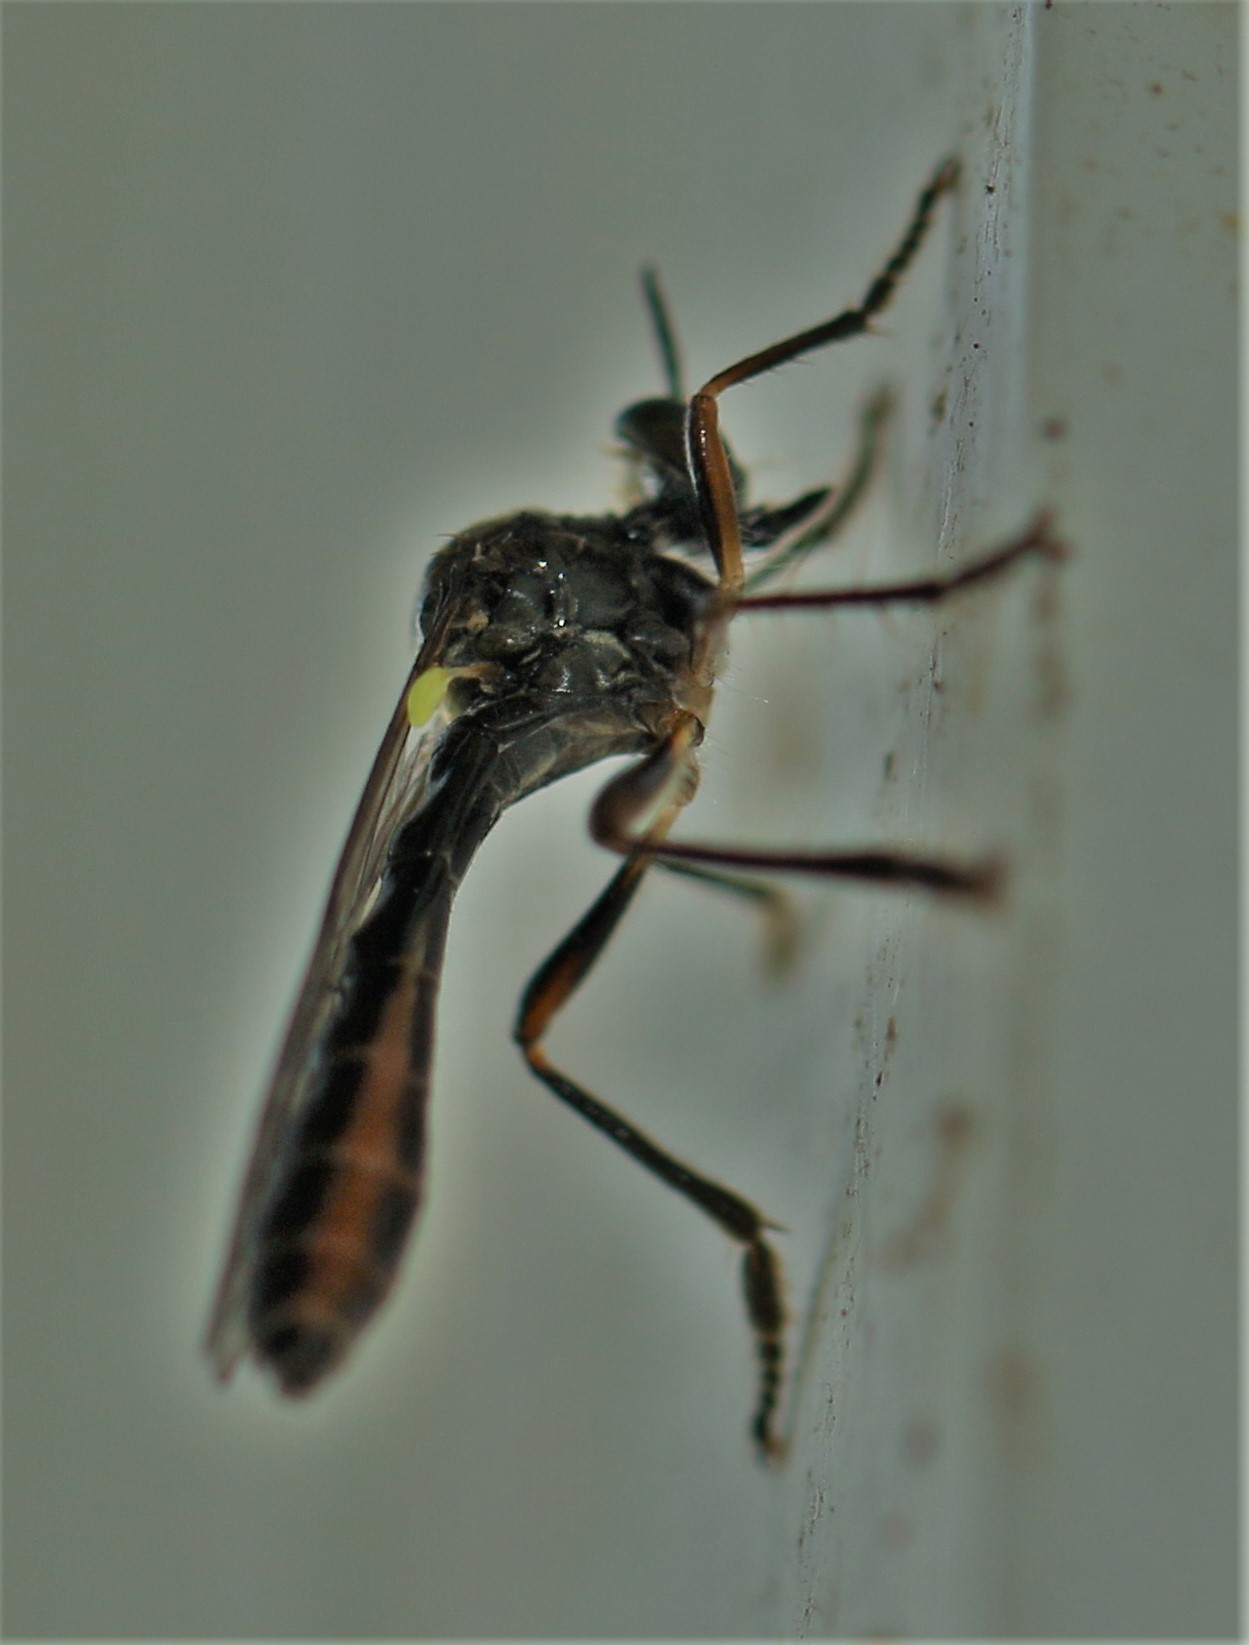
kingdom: Animalia
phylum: Arthropoda
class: Insecta
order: Diptera
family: Asilidae
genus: Dioctria
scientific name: Dioctria hyalipennis
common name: Stripe-legged robberfly
